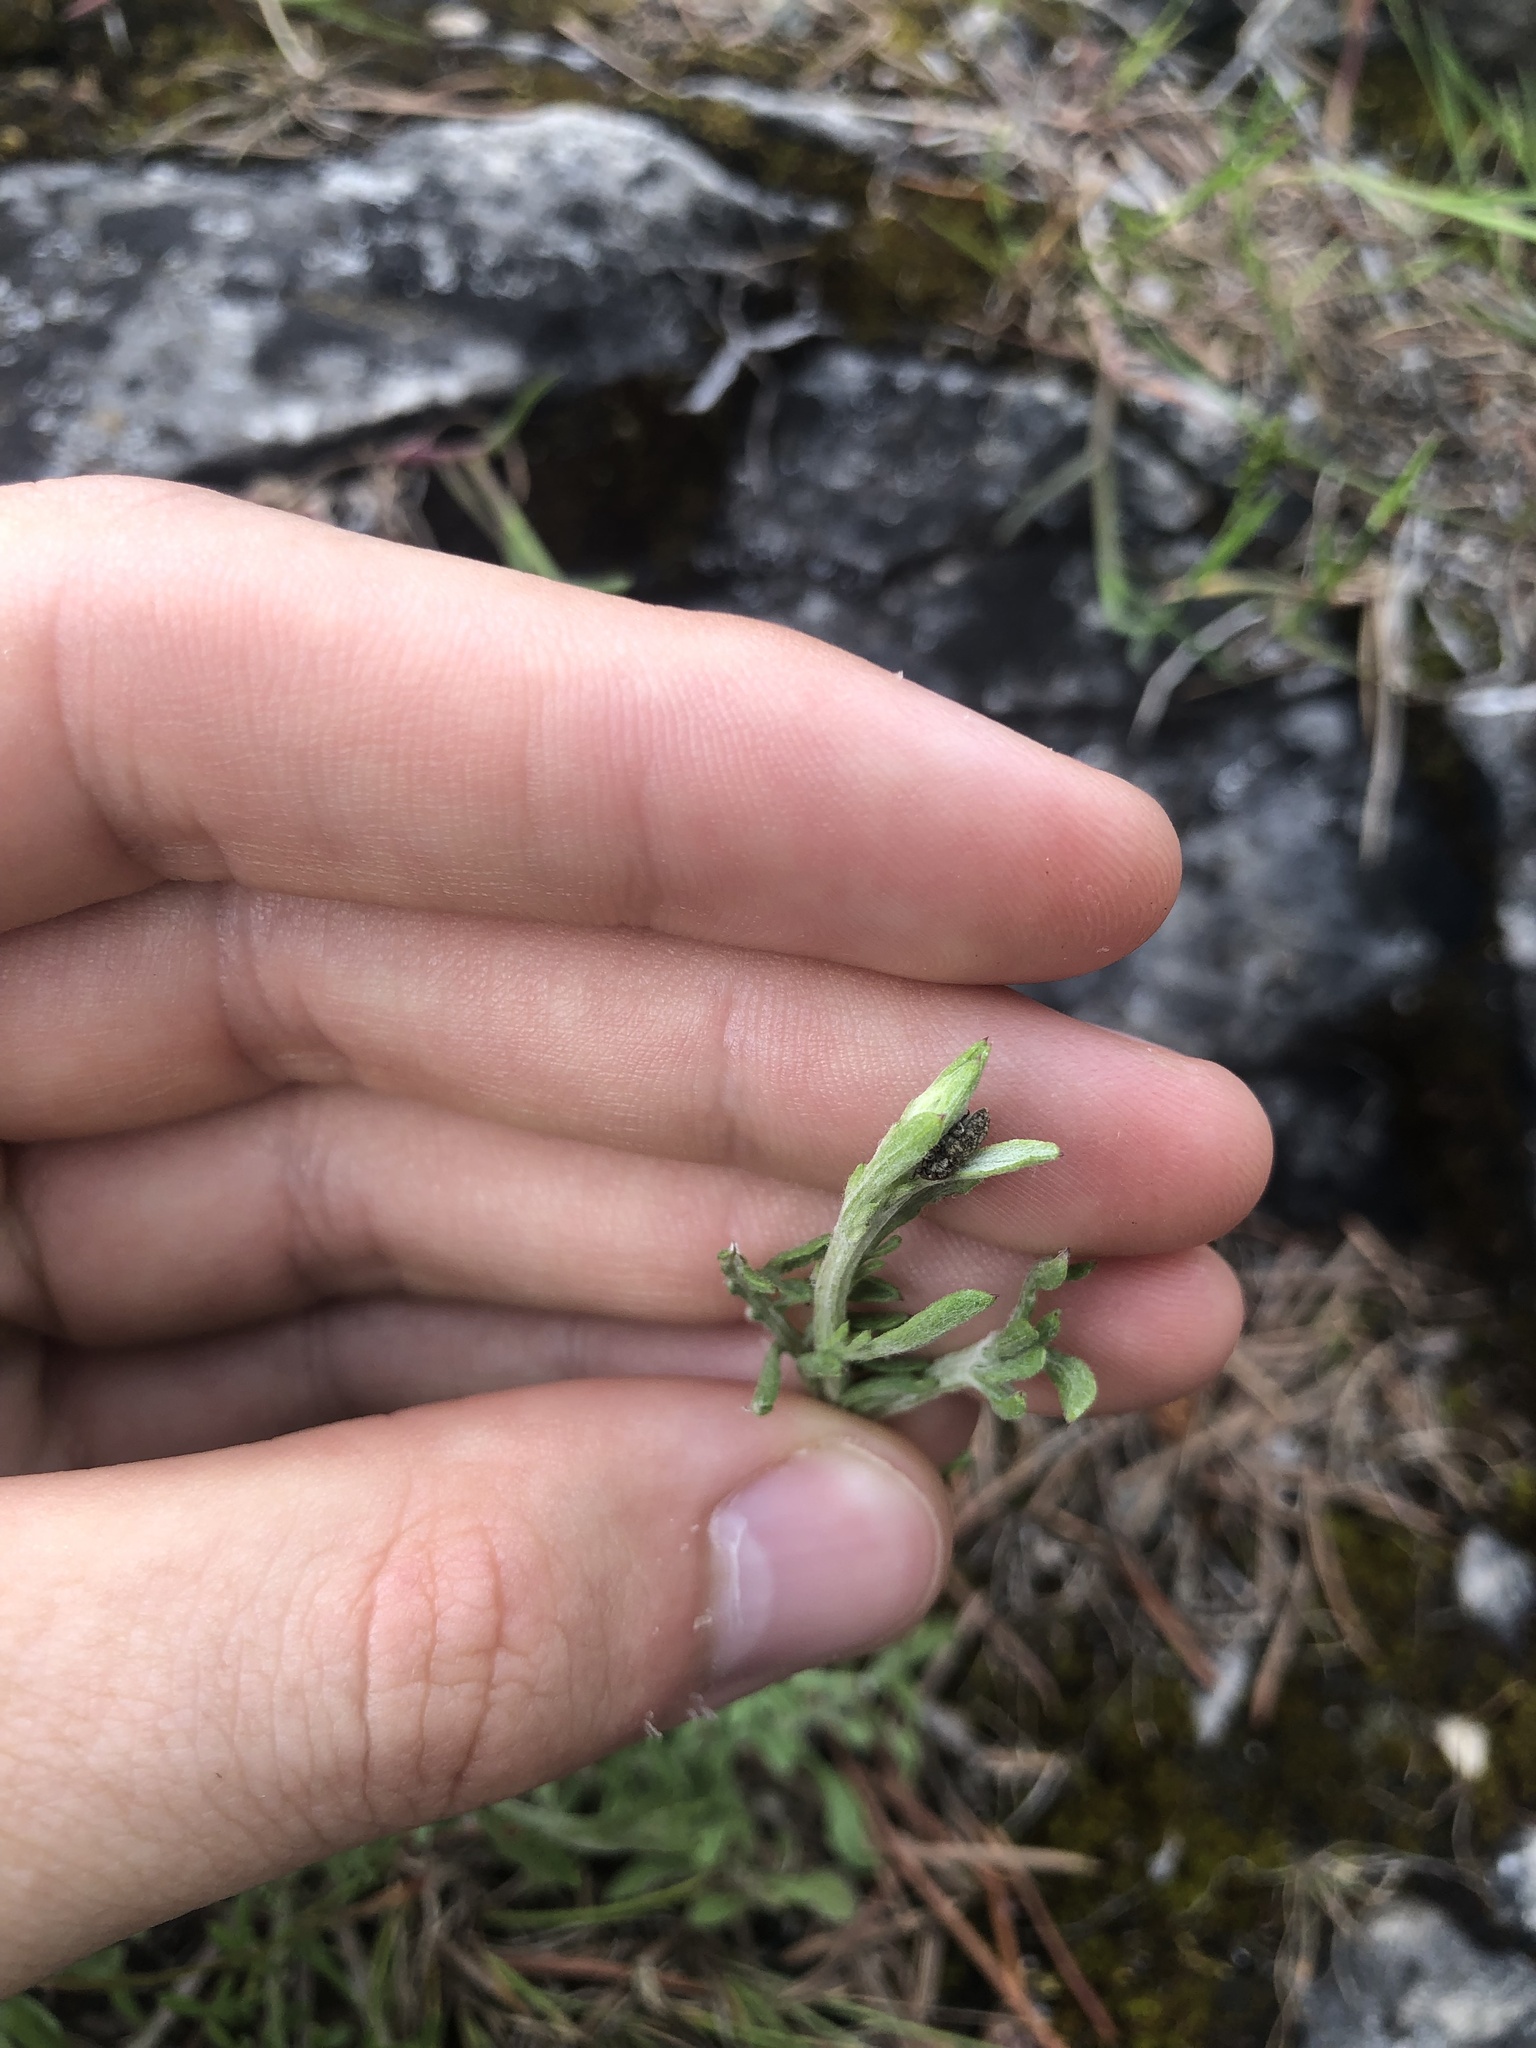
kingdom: Animalia
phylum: Arthropoda
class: Insecta
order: Coleoptera
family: Curculionidae
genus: Bangasternus
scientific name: Bangasternus fausti
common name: Broad-nosed knapweed seedhead weevil
